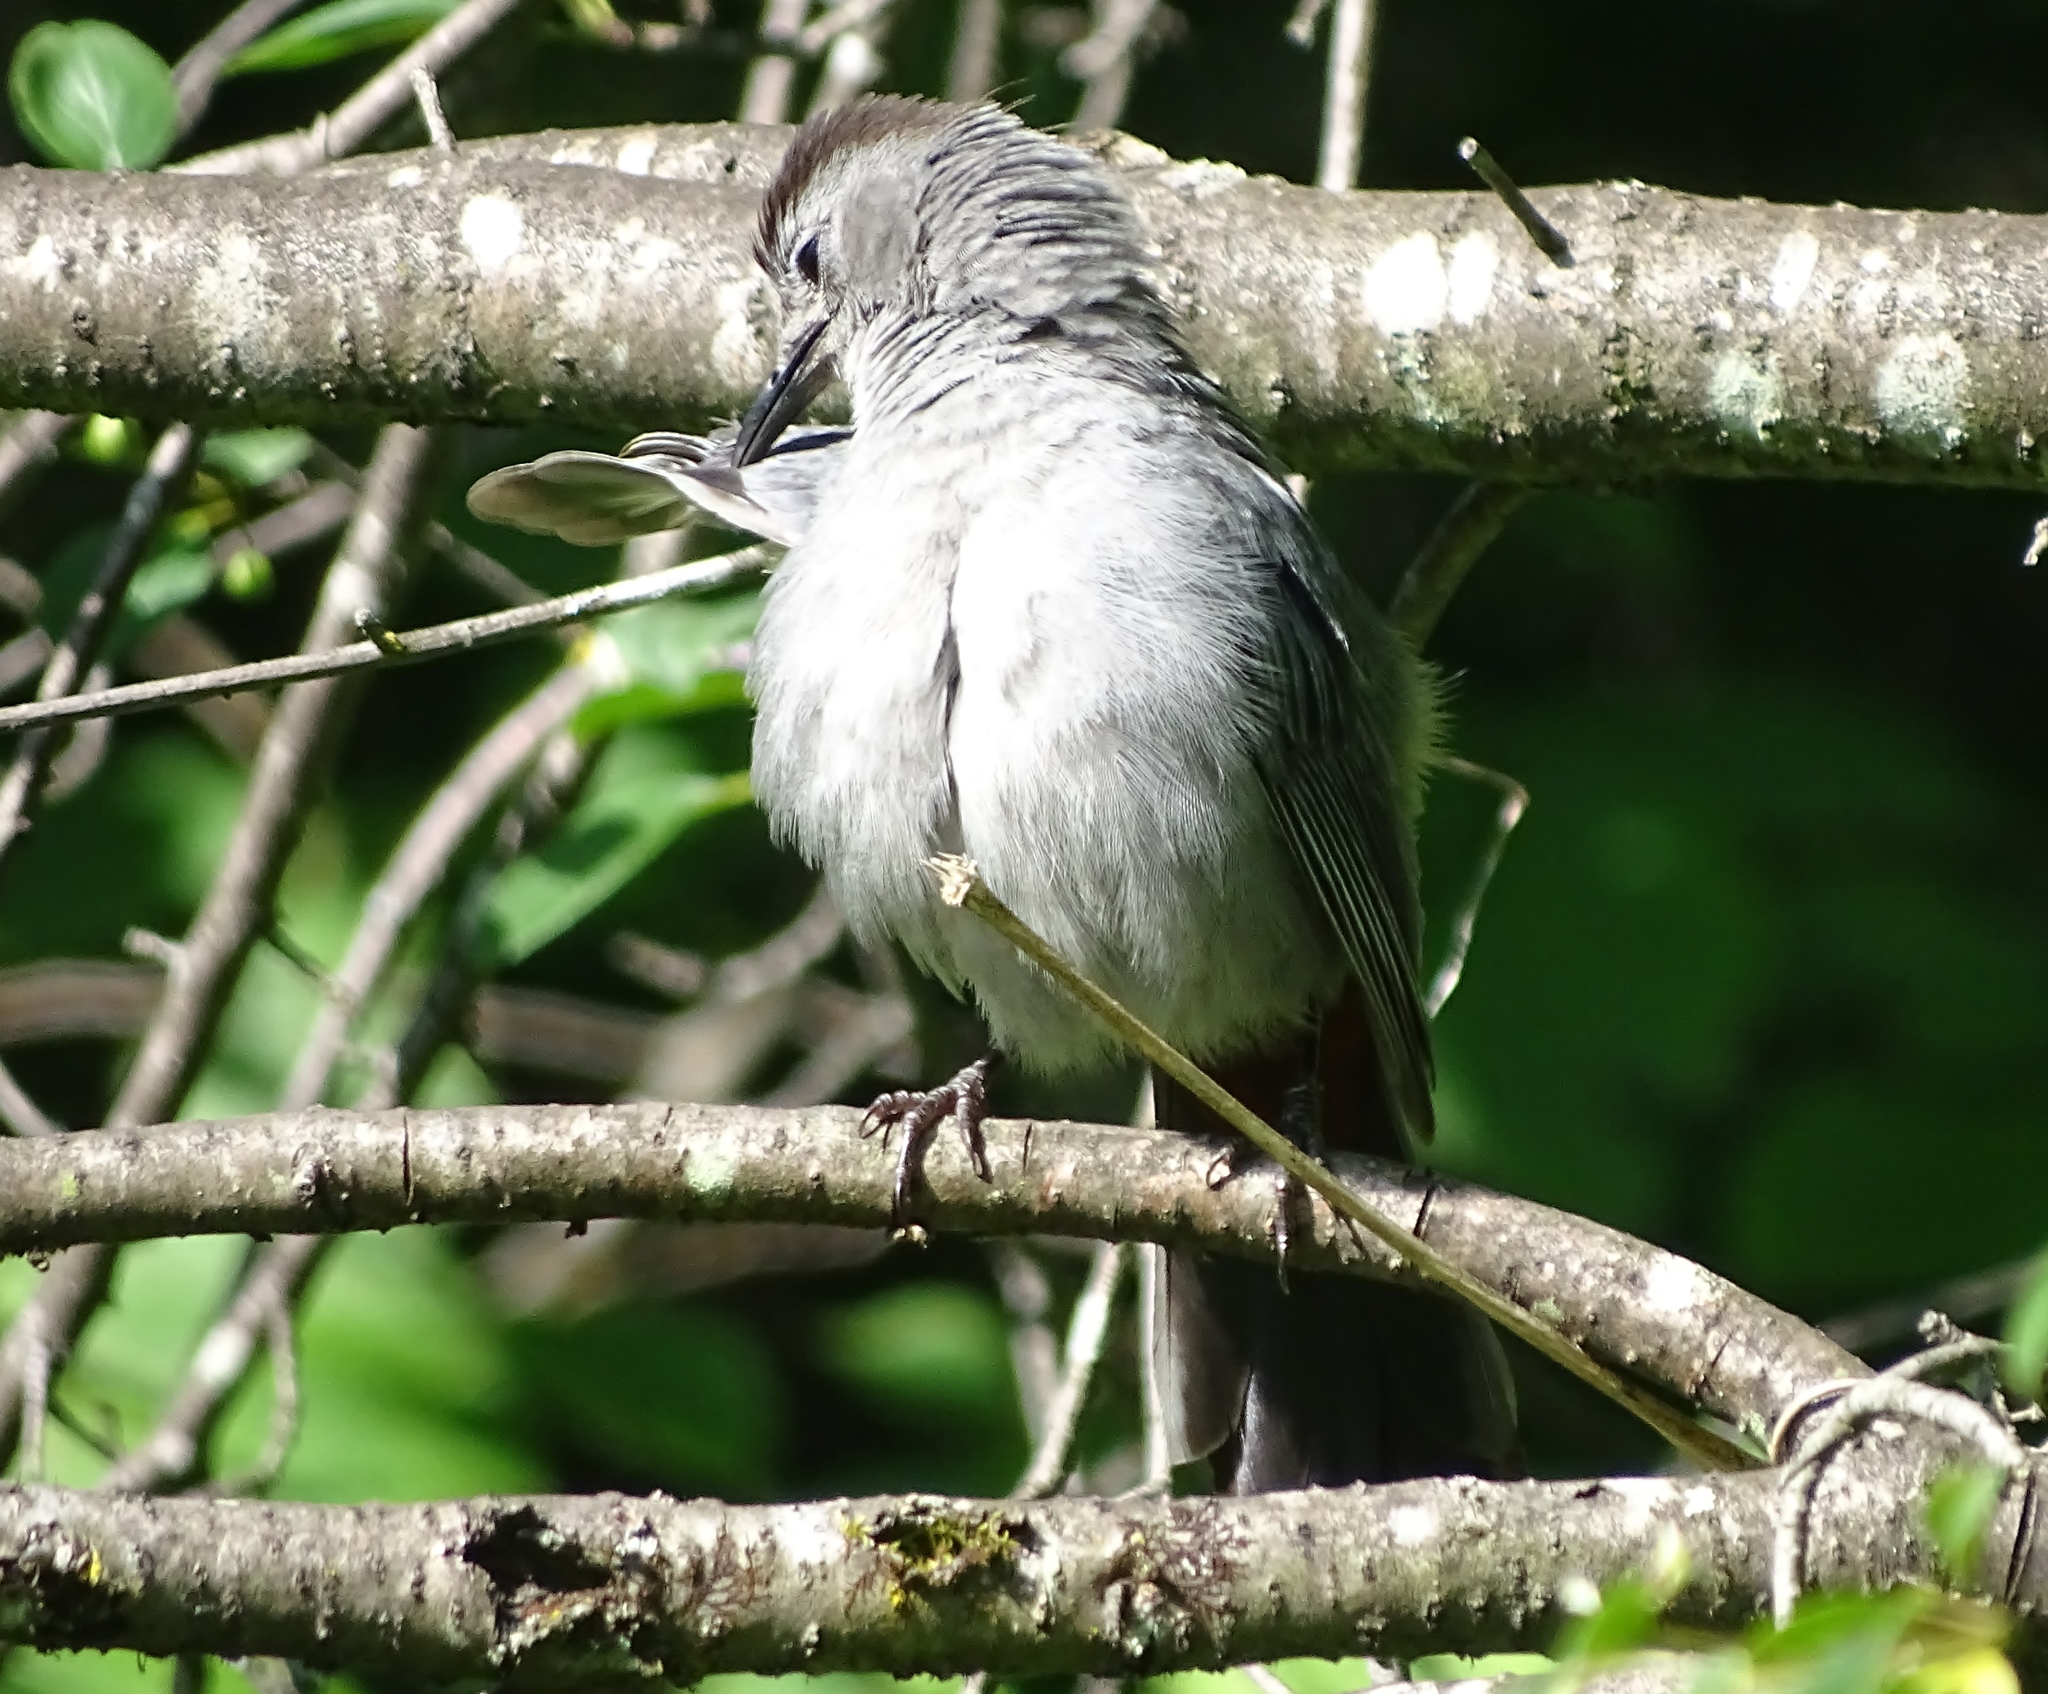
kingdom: Animalia
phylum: Chordata
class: Aves
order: Passeriformes
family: Mimidae
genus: Dumetella
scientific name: Dumetella carolinensis
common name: Gray catbird
